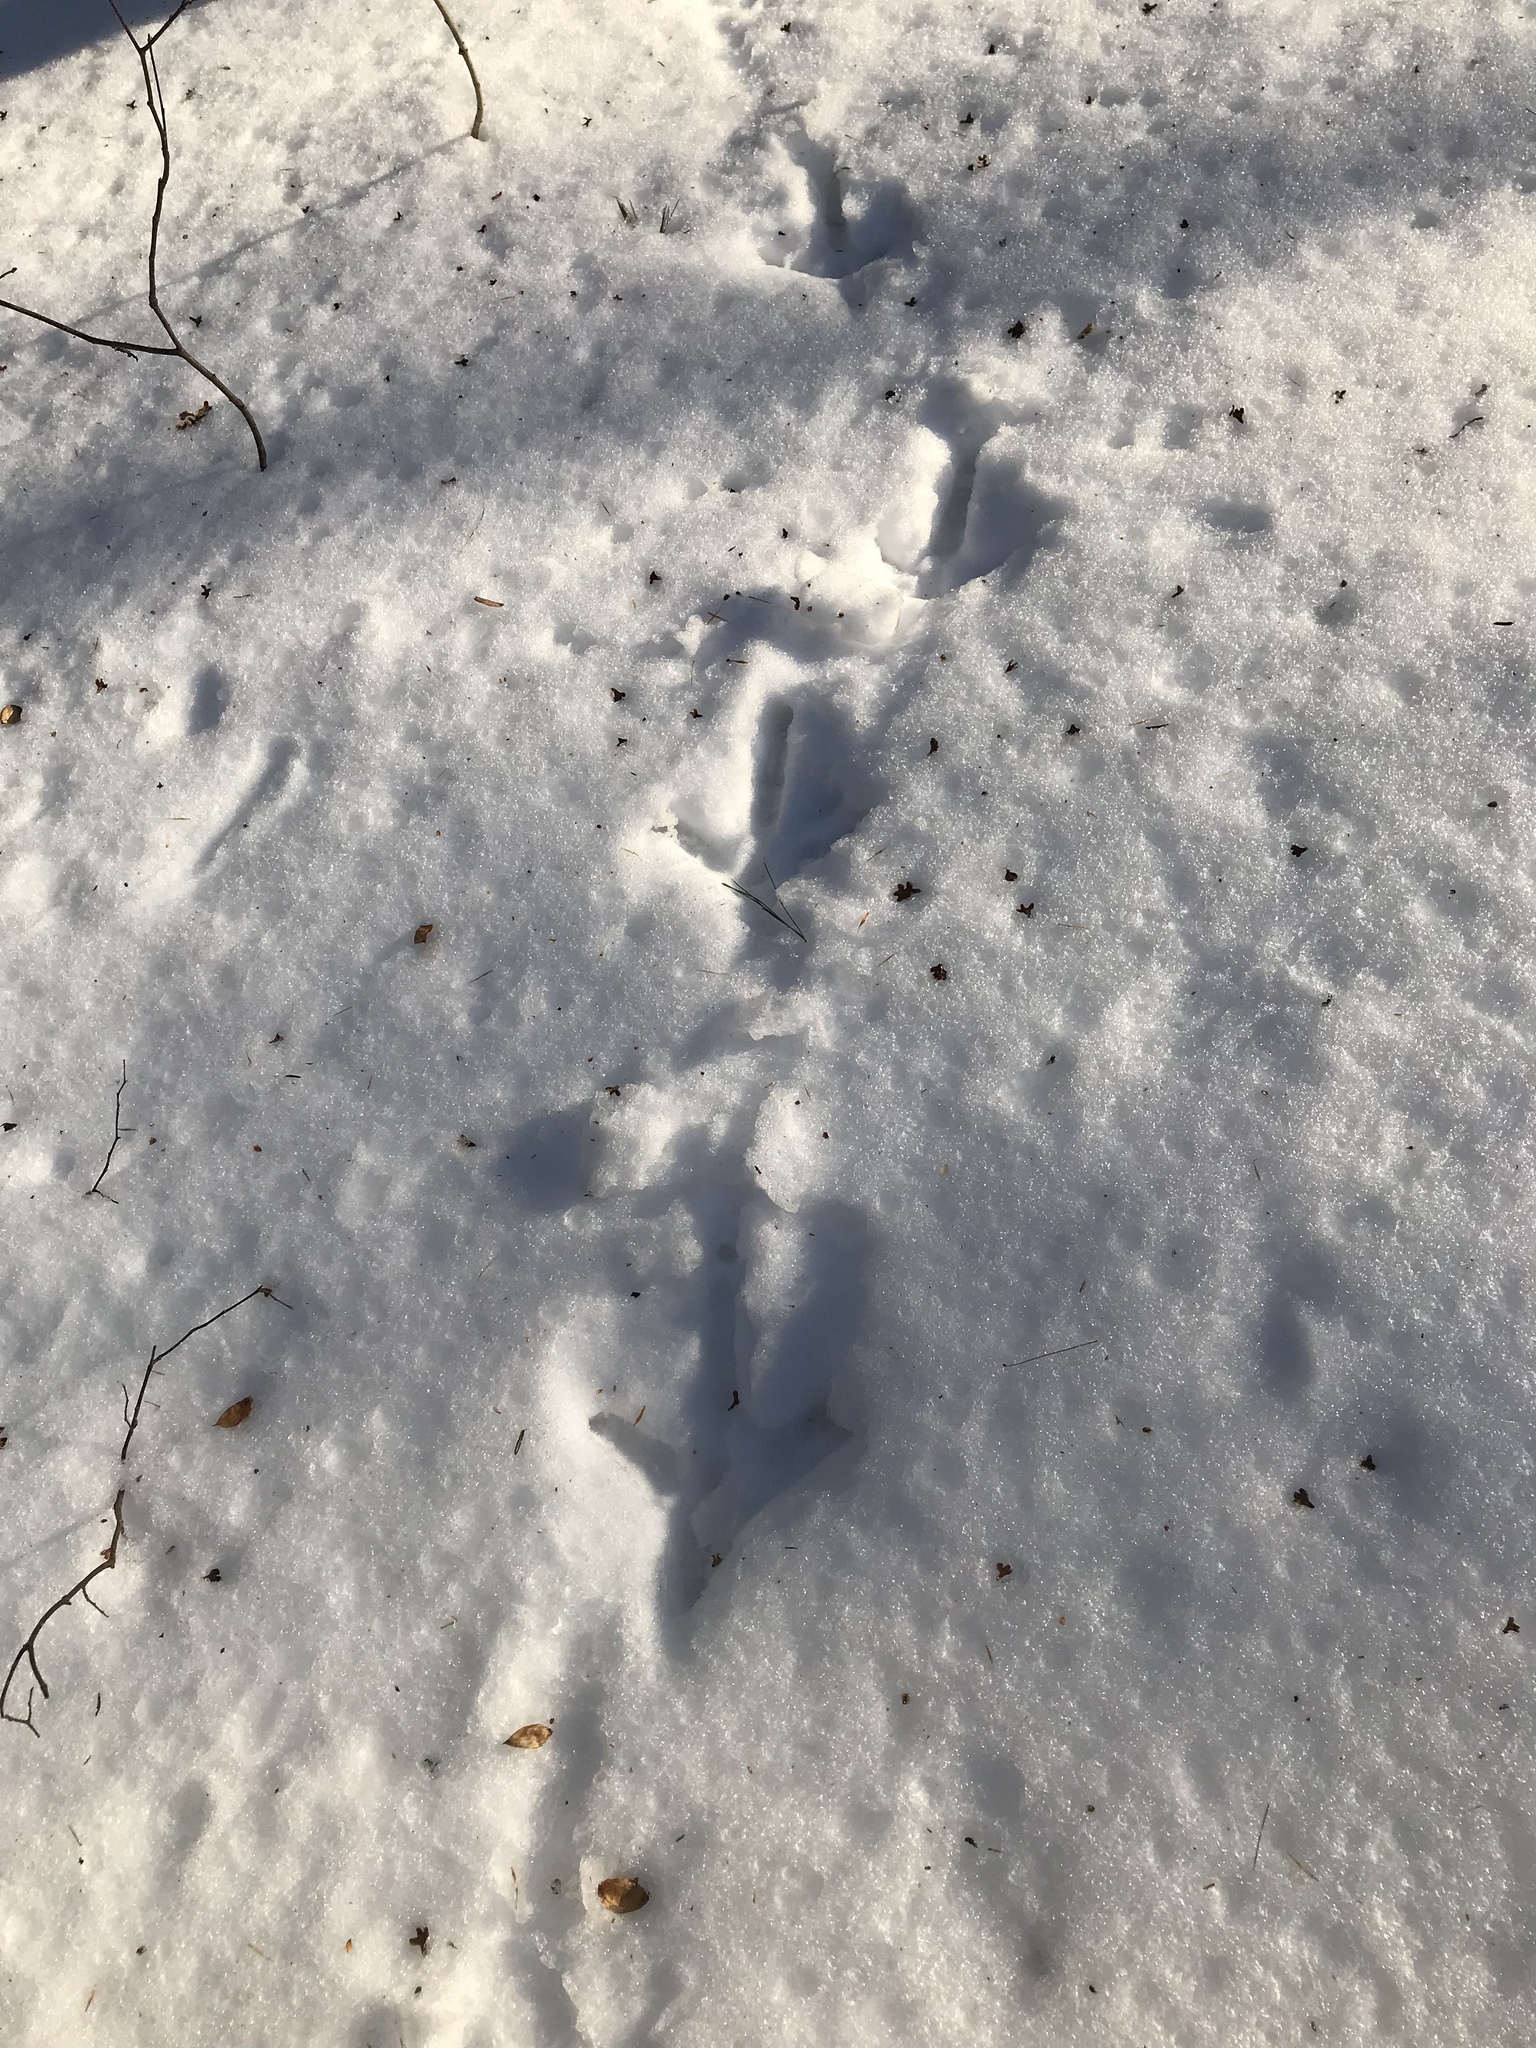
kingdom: Animalia
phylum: Chordata
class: Aves
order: Galliformes
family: Phasianidae
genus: Meleagris
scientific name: Meleagris gallopavo
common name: Wild turkey
